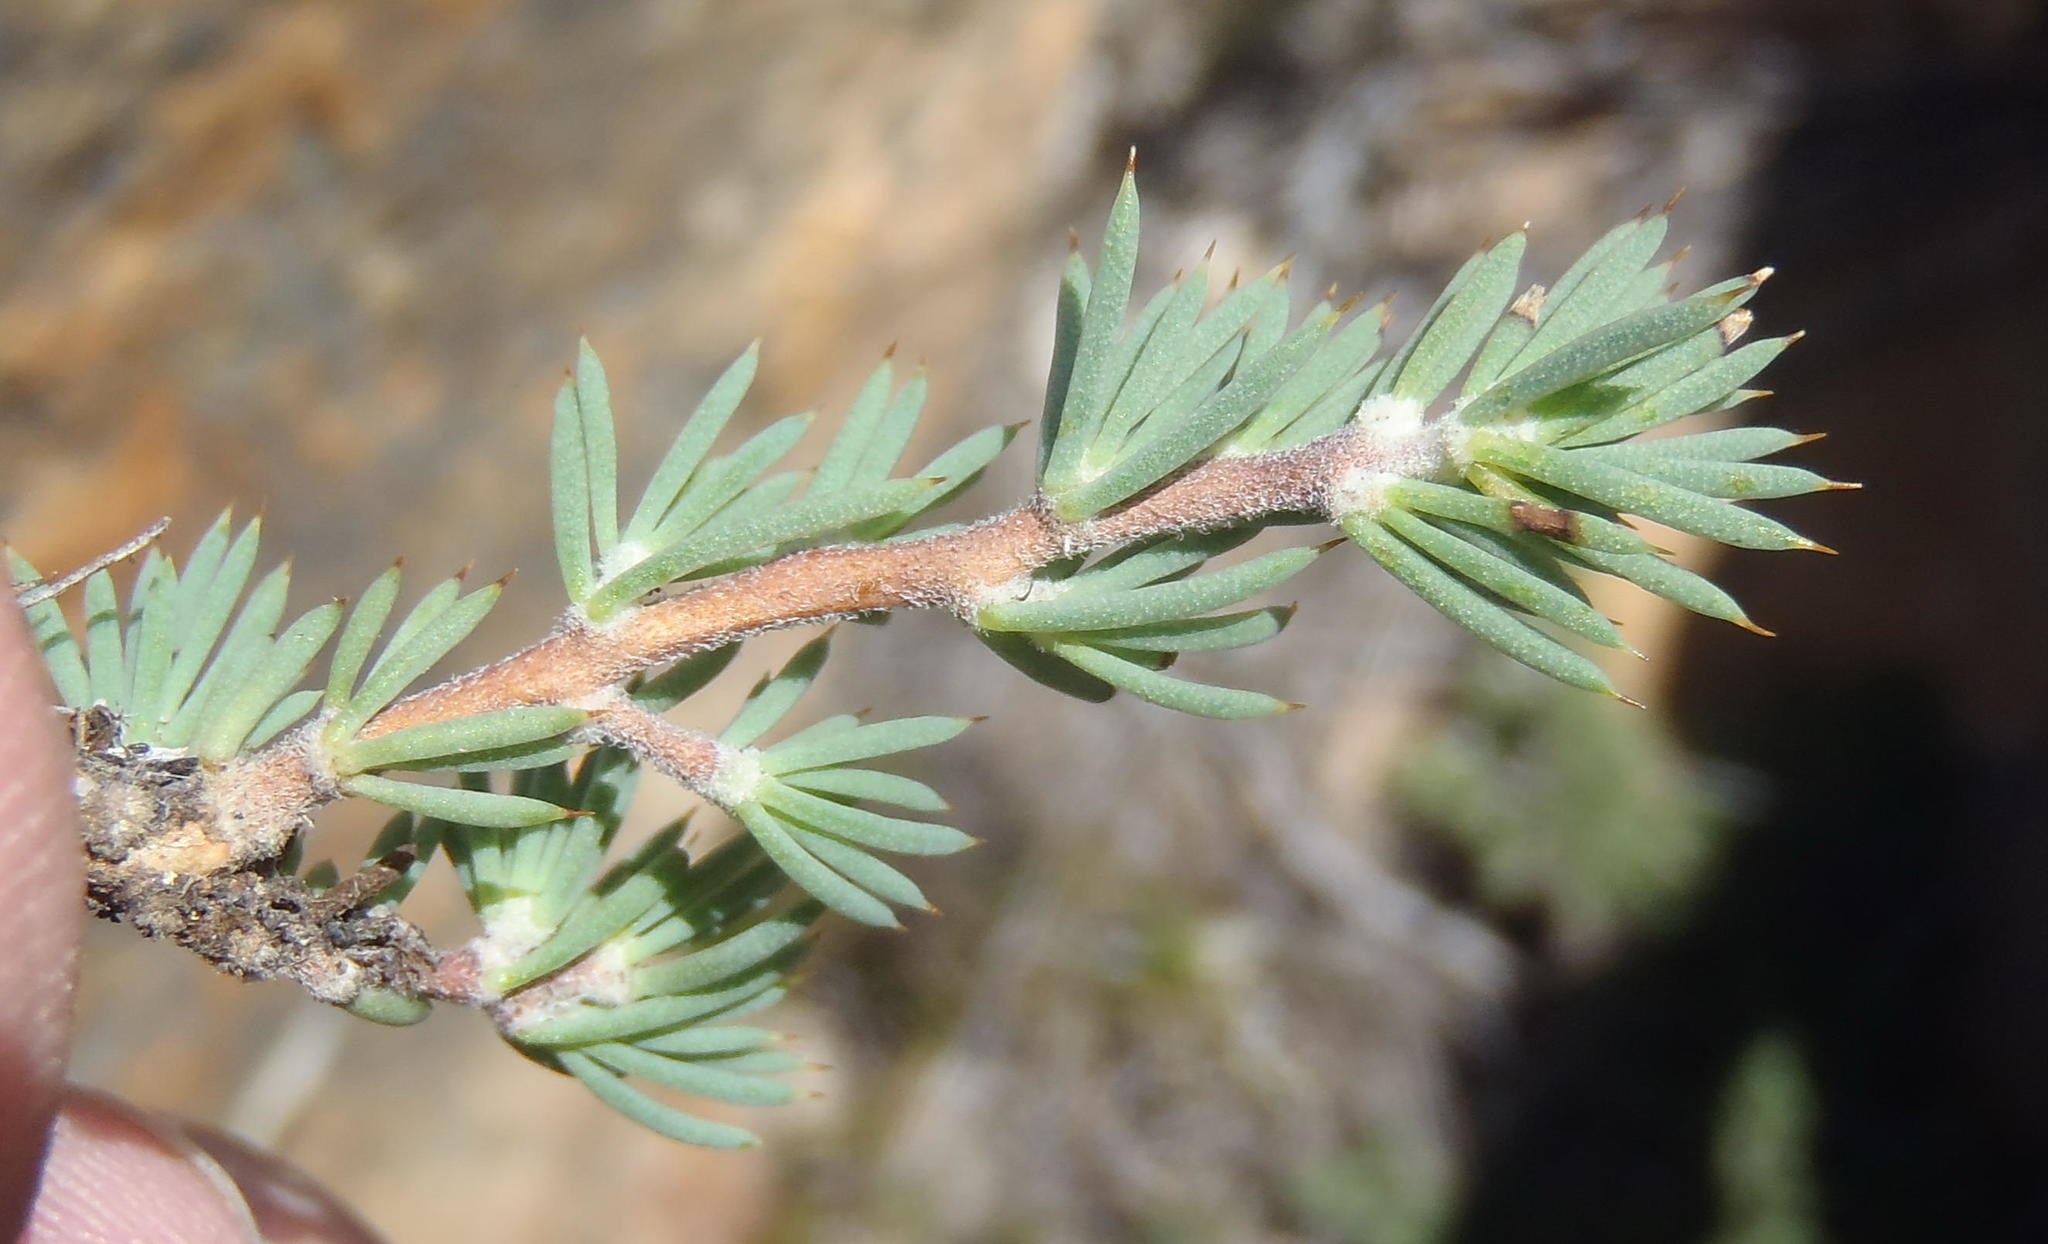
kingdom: Plantae
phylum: Tracheophyta
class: Magnoliopsida
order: Fabales
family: Fabaceae
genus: Aspalathus
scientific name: Aspalathus rigidifolia
